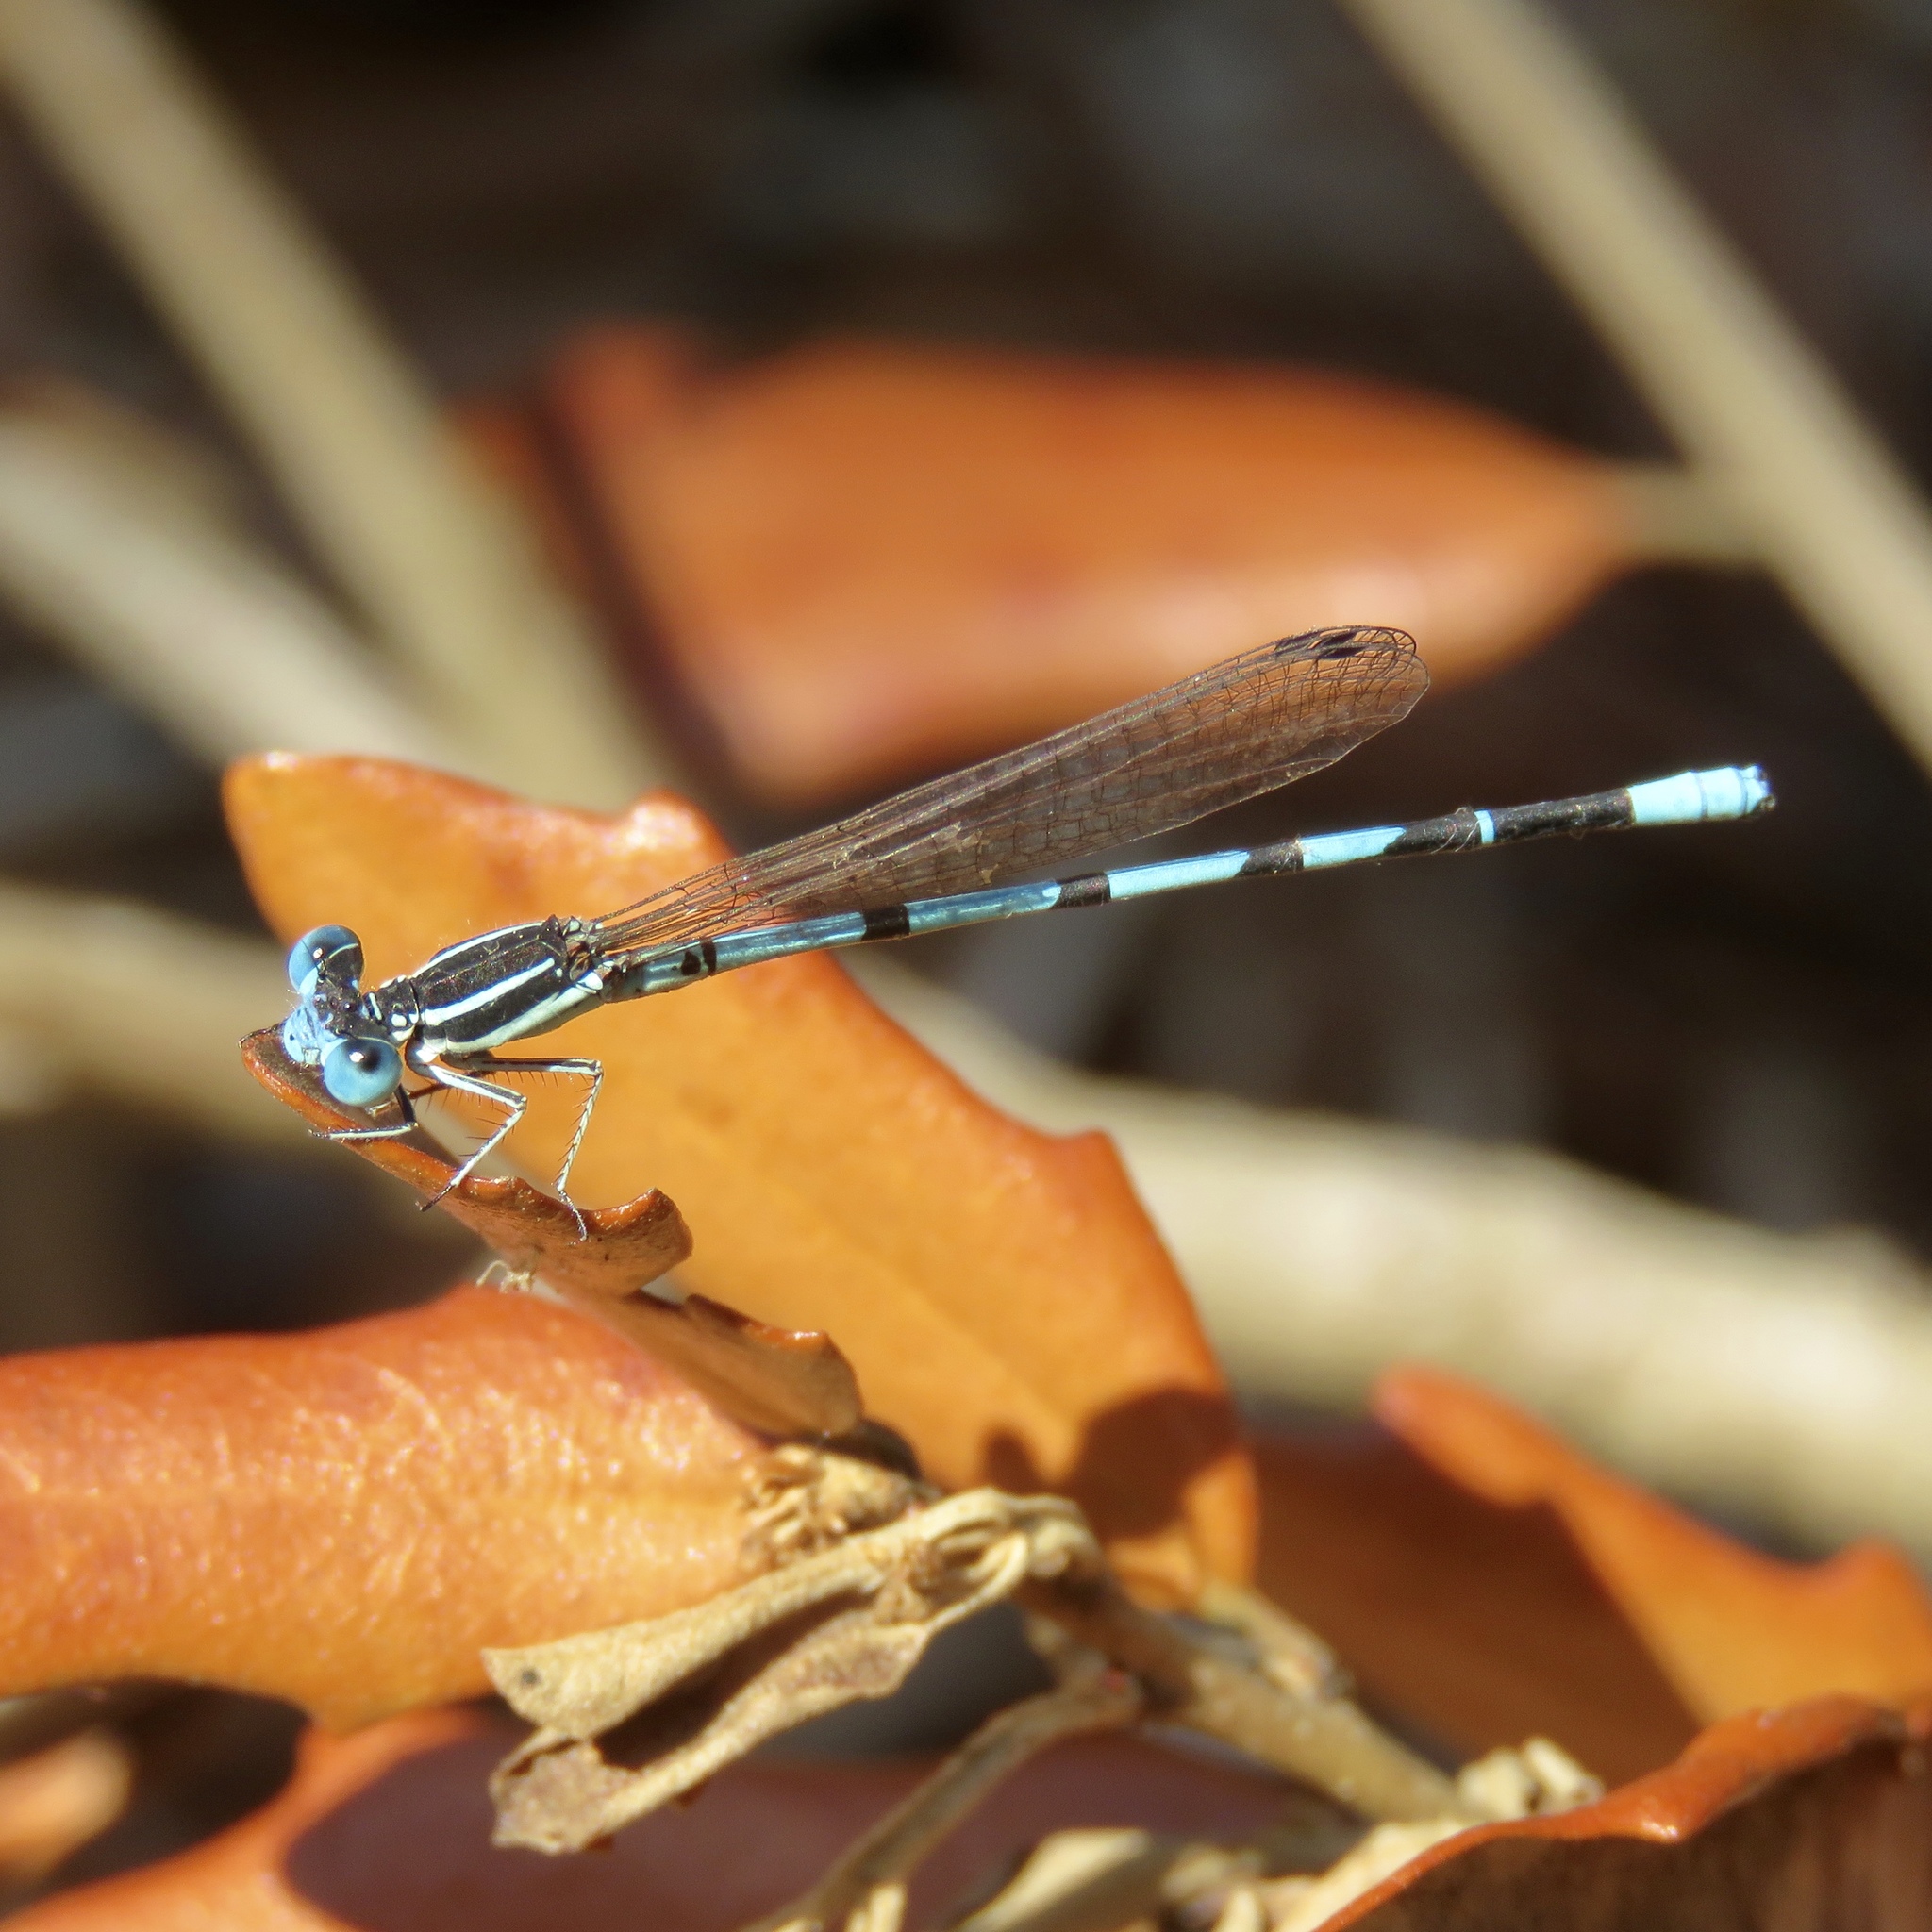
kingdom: Animalia
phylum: Arthropoda
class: Insecta
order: Odonata
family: Coenagrionidae
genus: Argia
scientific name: Argia bipunctulata
